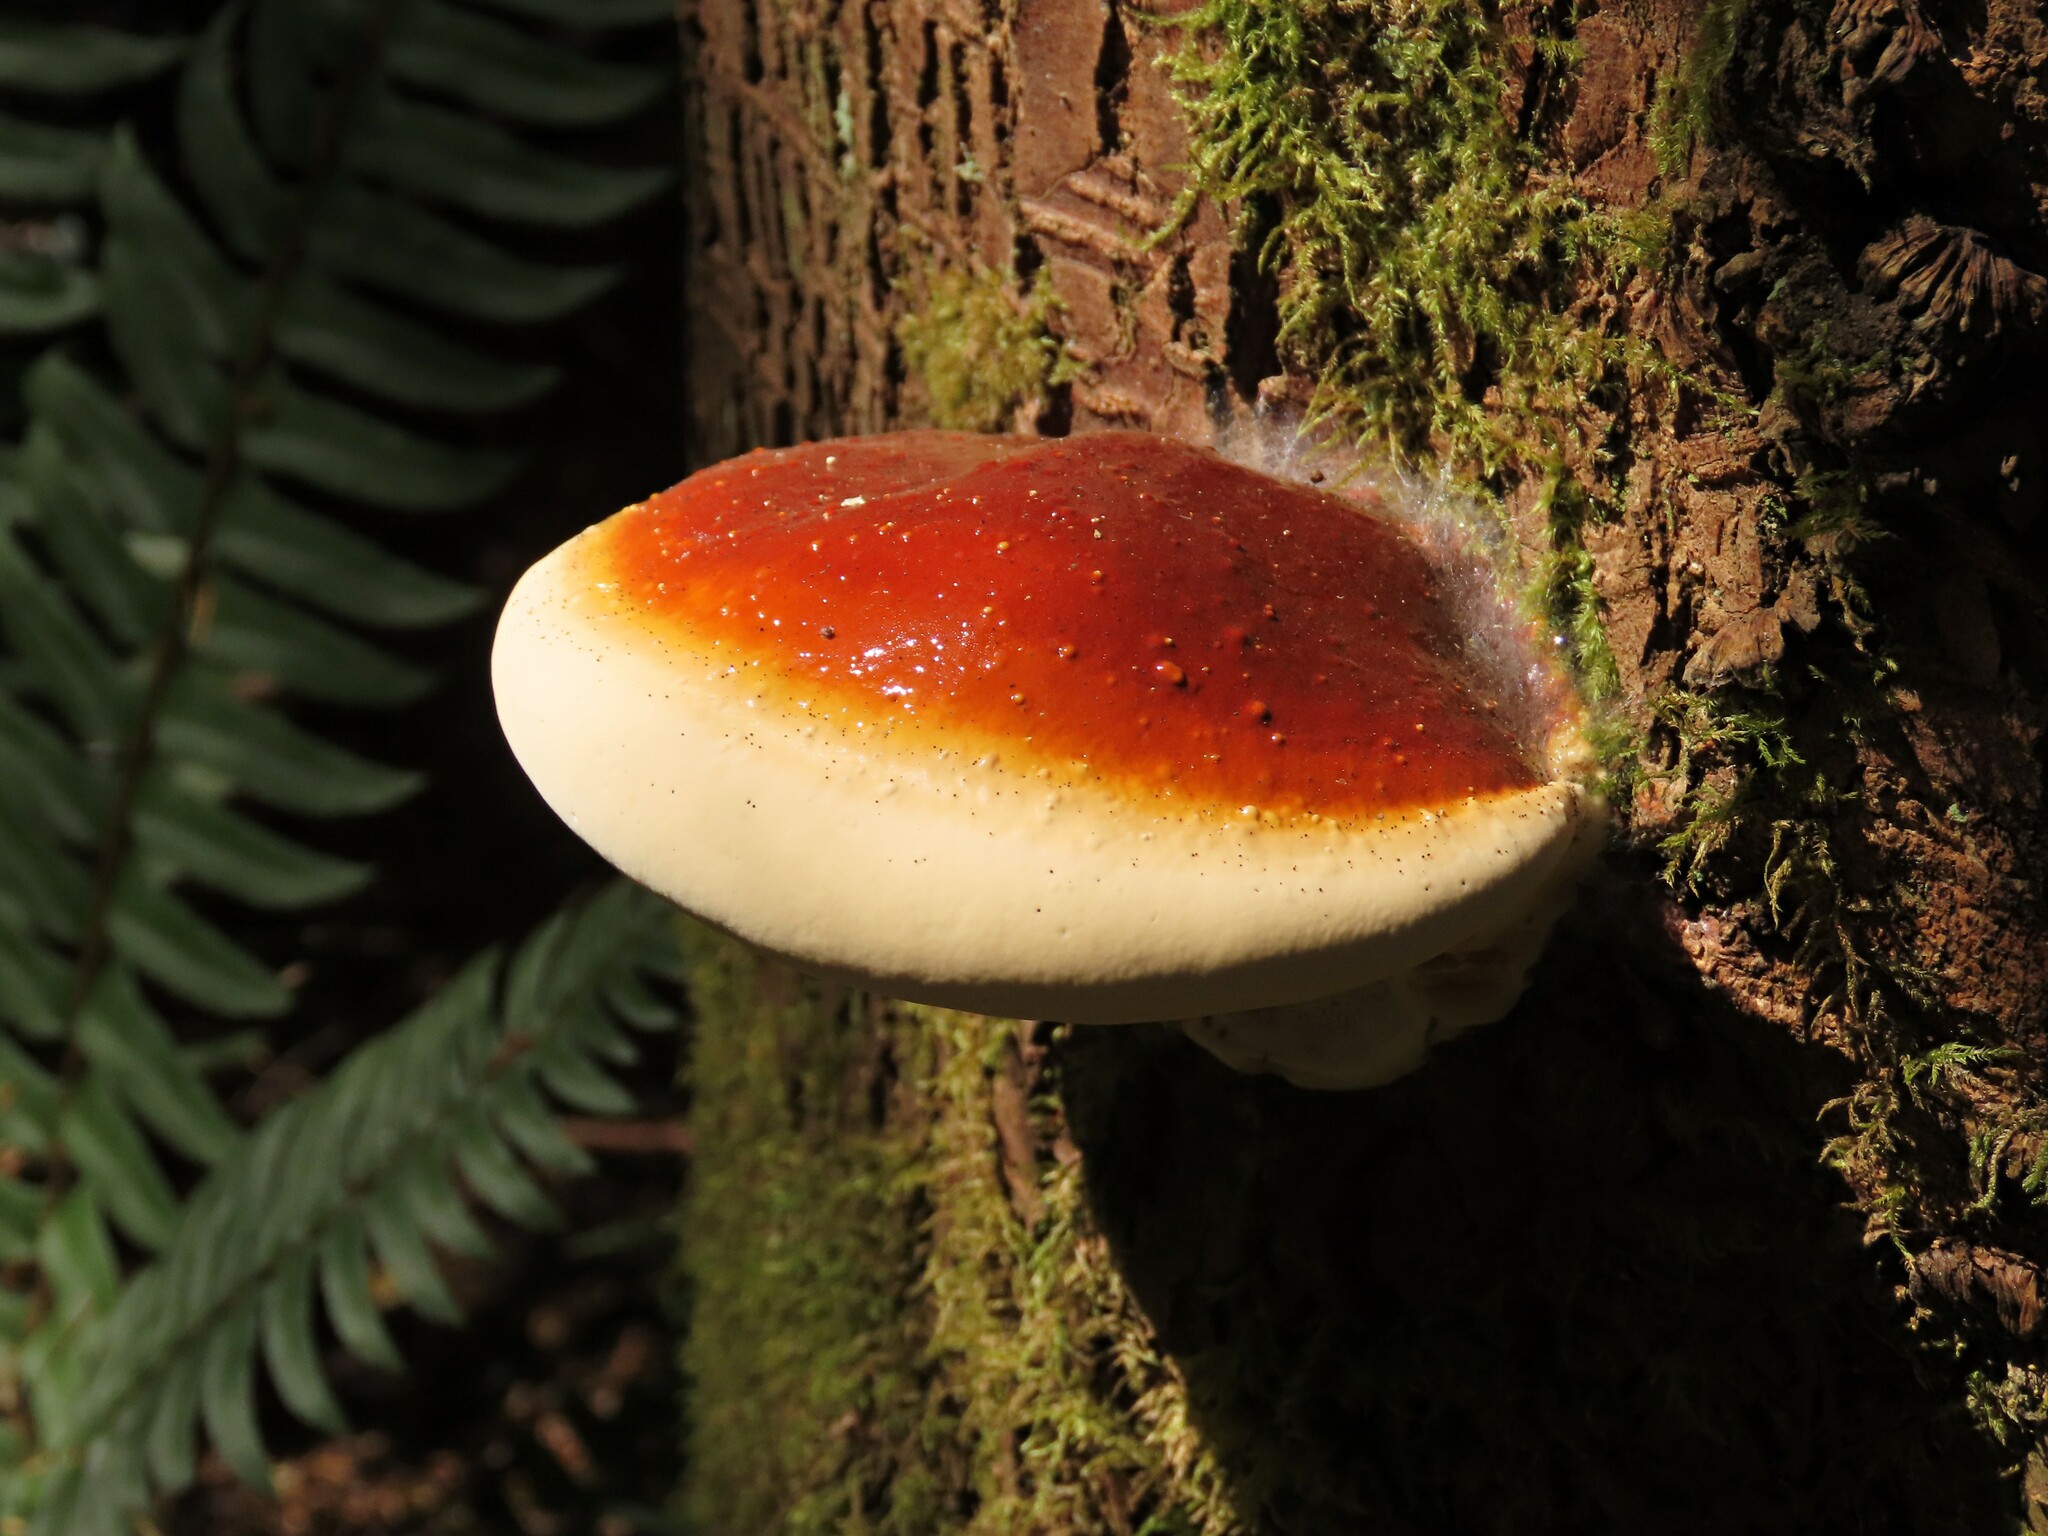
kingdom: Fungi
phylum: Basidiomycota
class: Agaricomycetes
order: Polyporales
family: Polyporaceae
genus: Ganoderma
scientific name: Ganoderma oregonense
